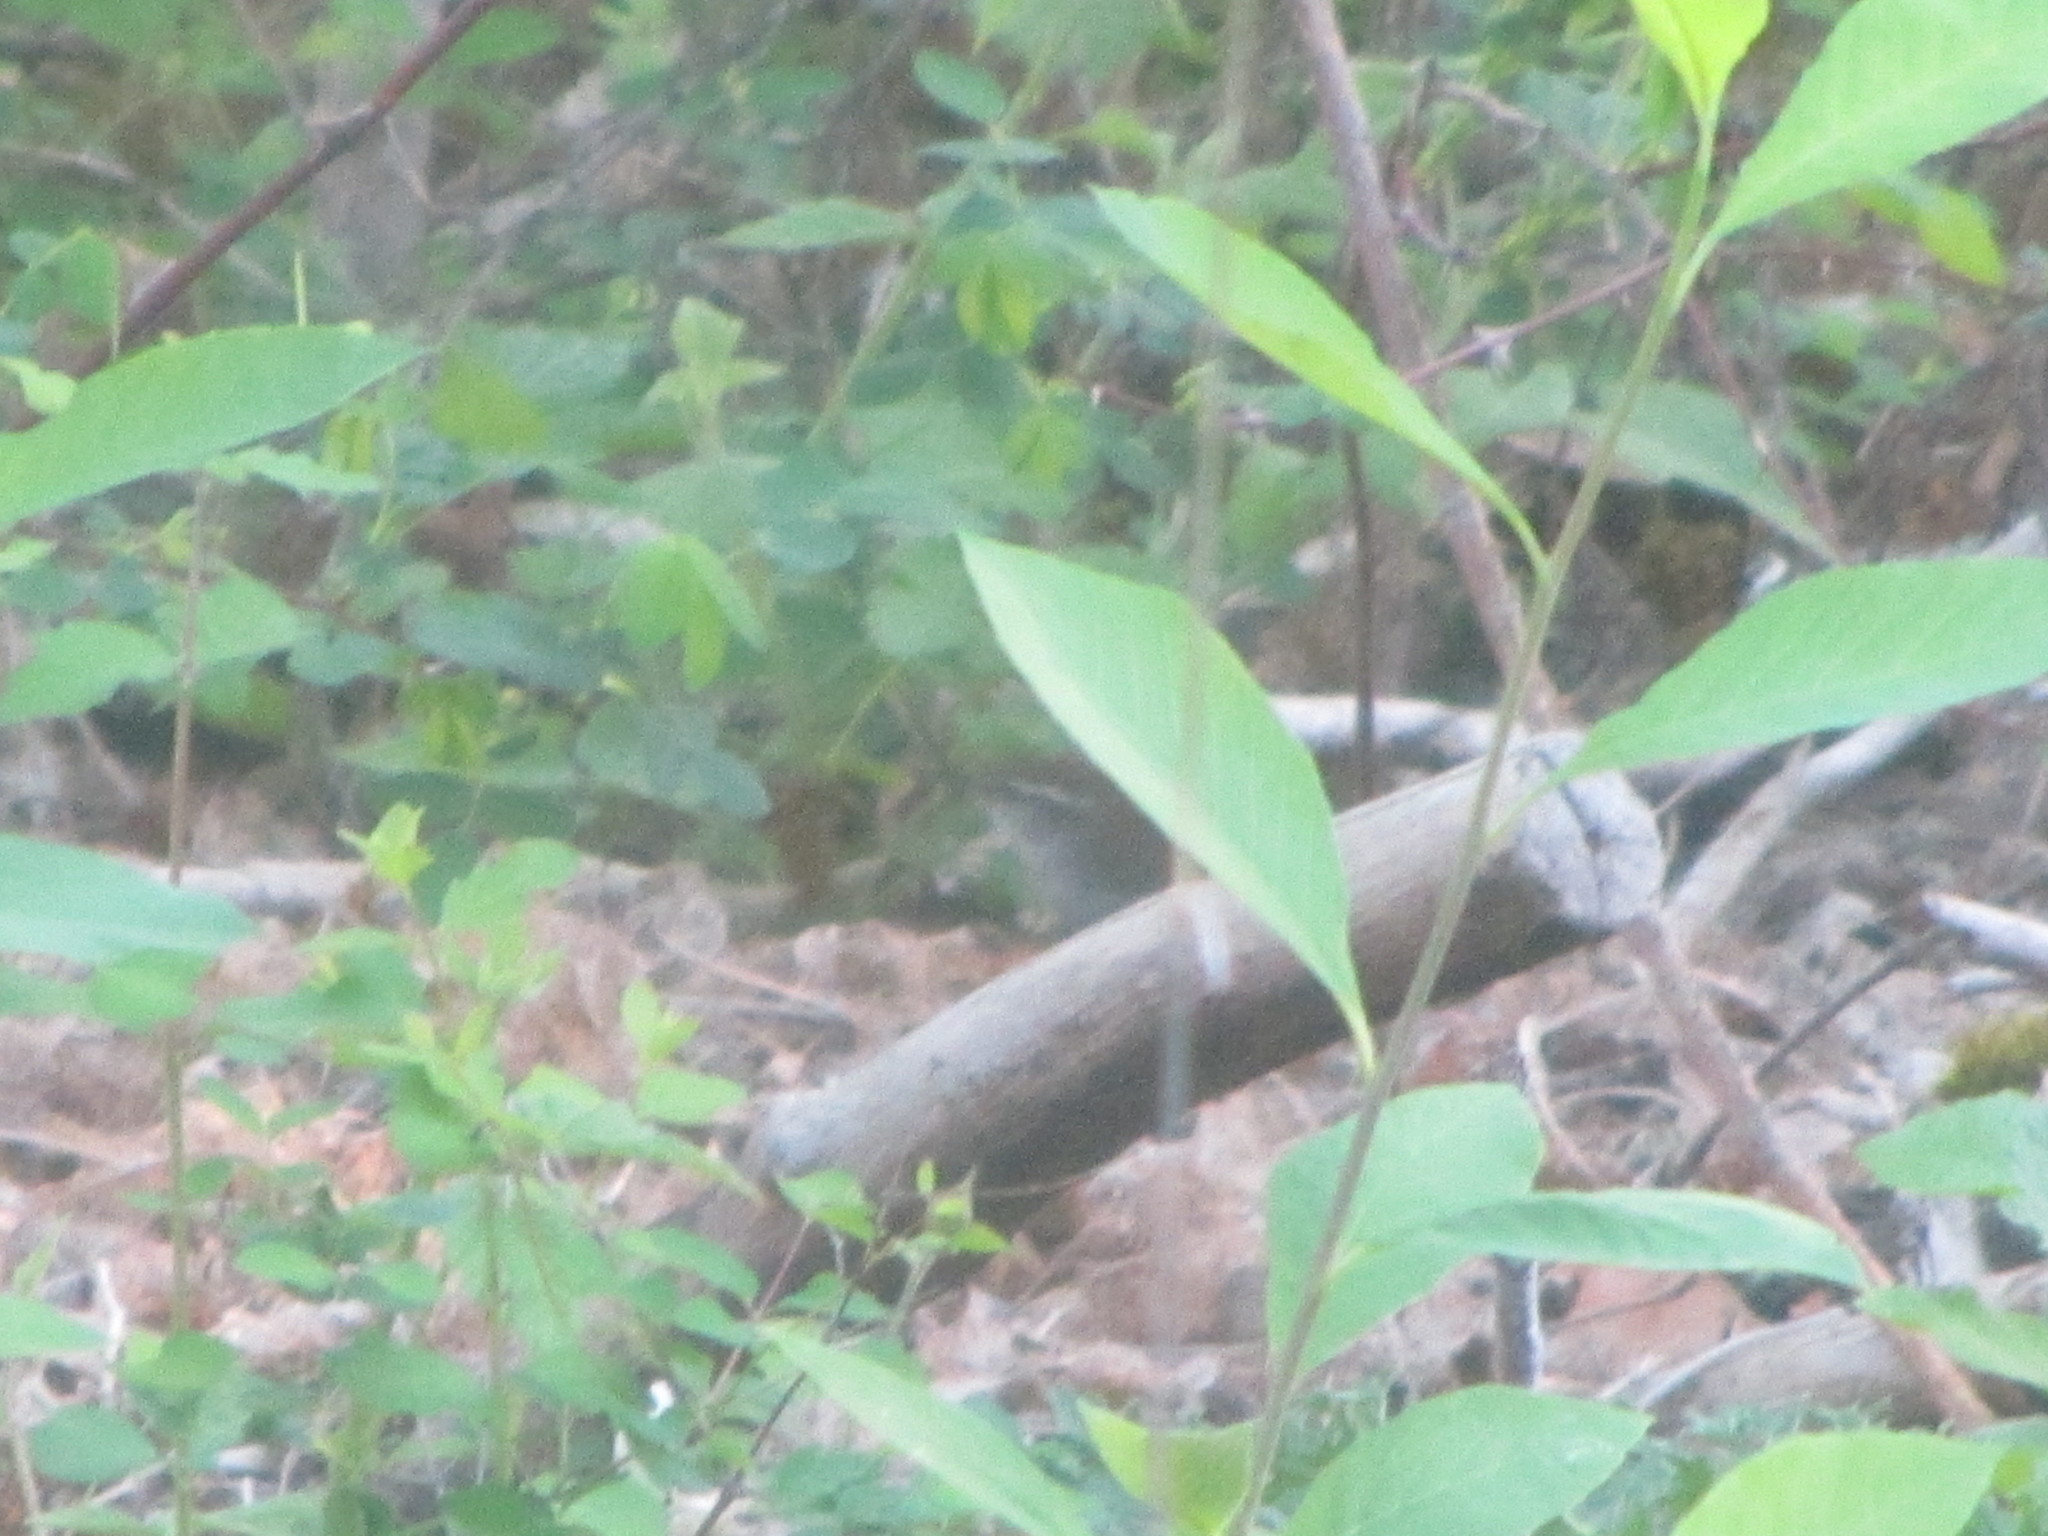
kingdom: Animalia
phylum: Chordata
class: Aves
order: Passeriformes
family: Troglodytidae
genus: Thryomanes
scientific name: Thryomanes bewickii
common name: Bewick's wren
